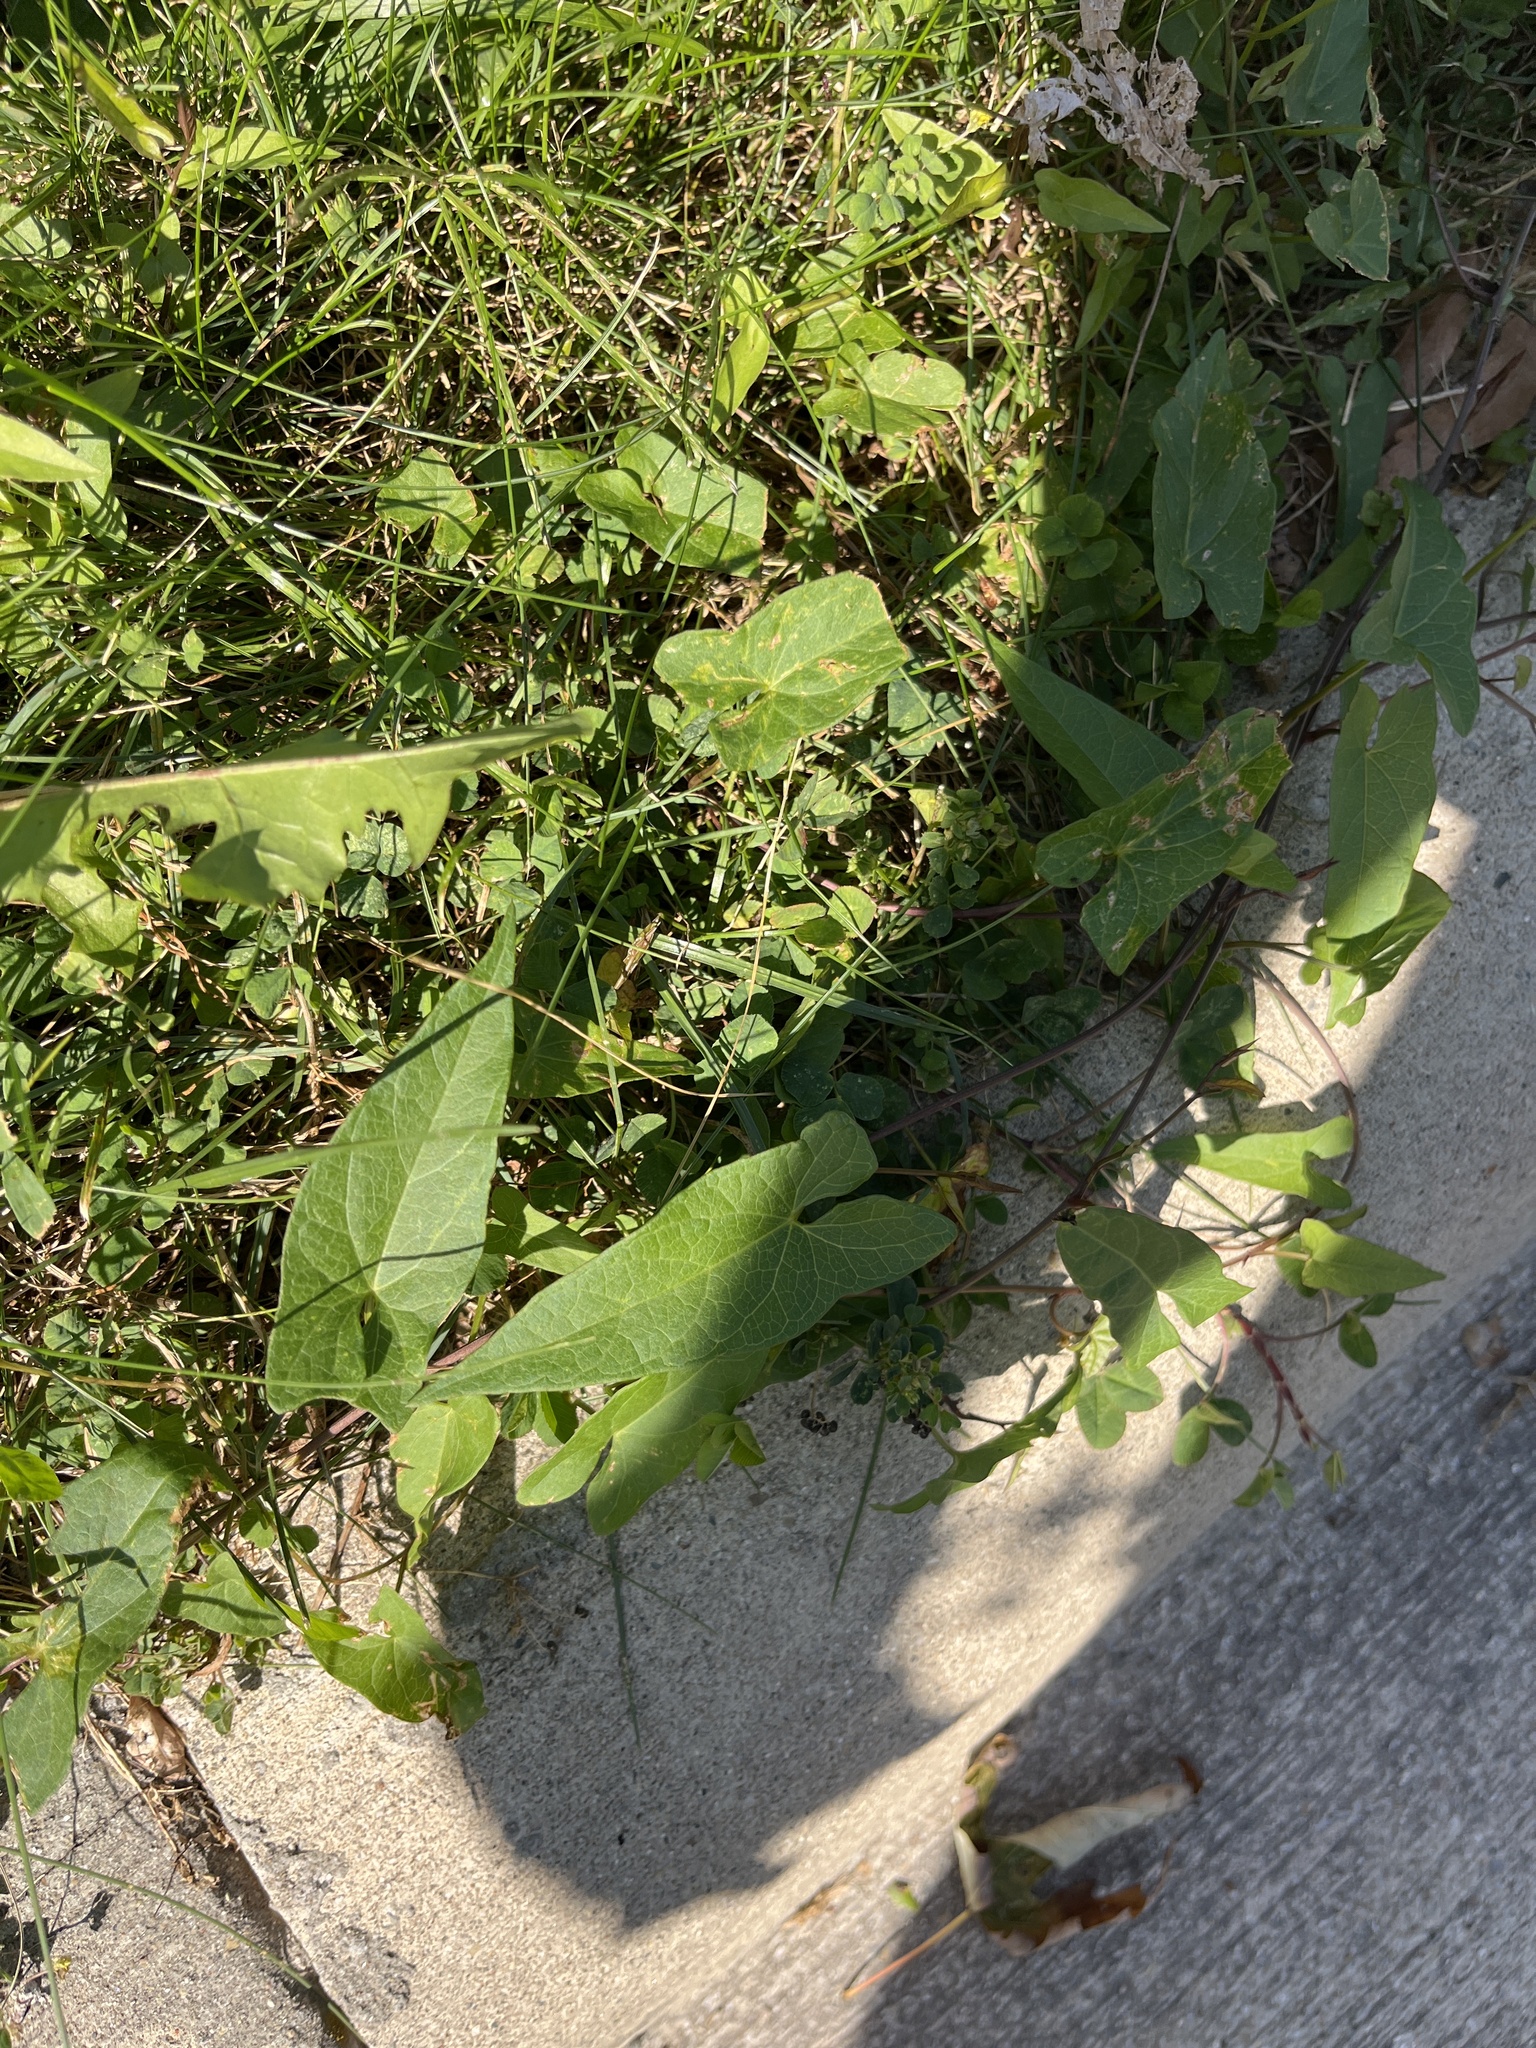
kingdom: Plantae
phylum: Tracheophyta
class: Magnoliopsida
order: Solanales
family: Convolvulaceae
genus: Calystegia
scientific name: Calystegia
